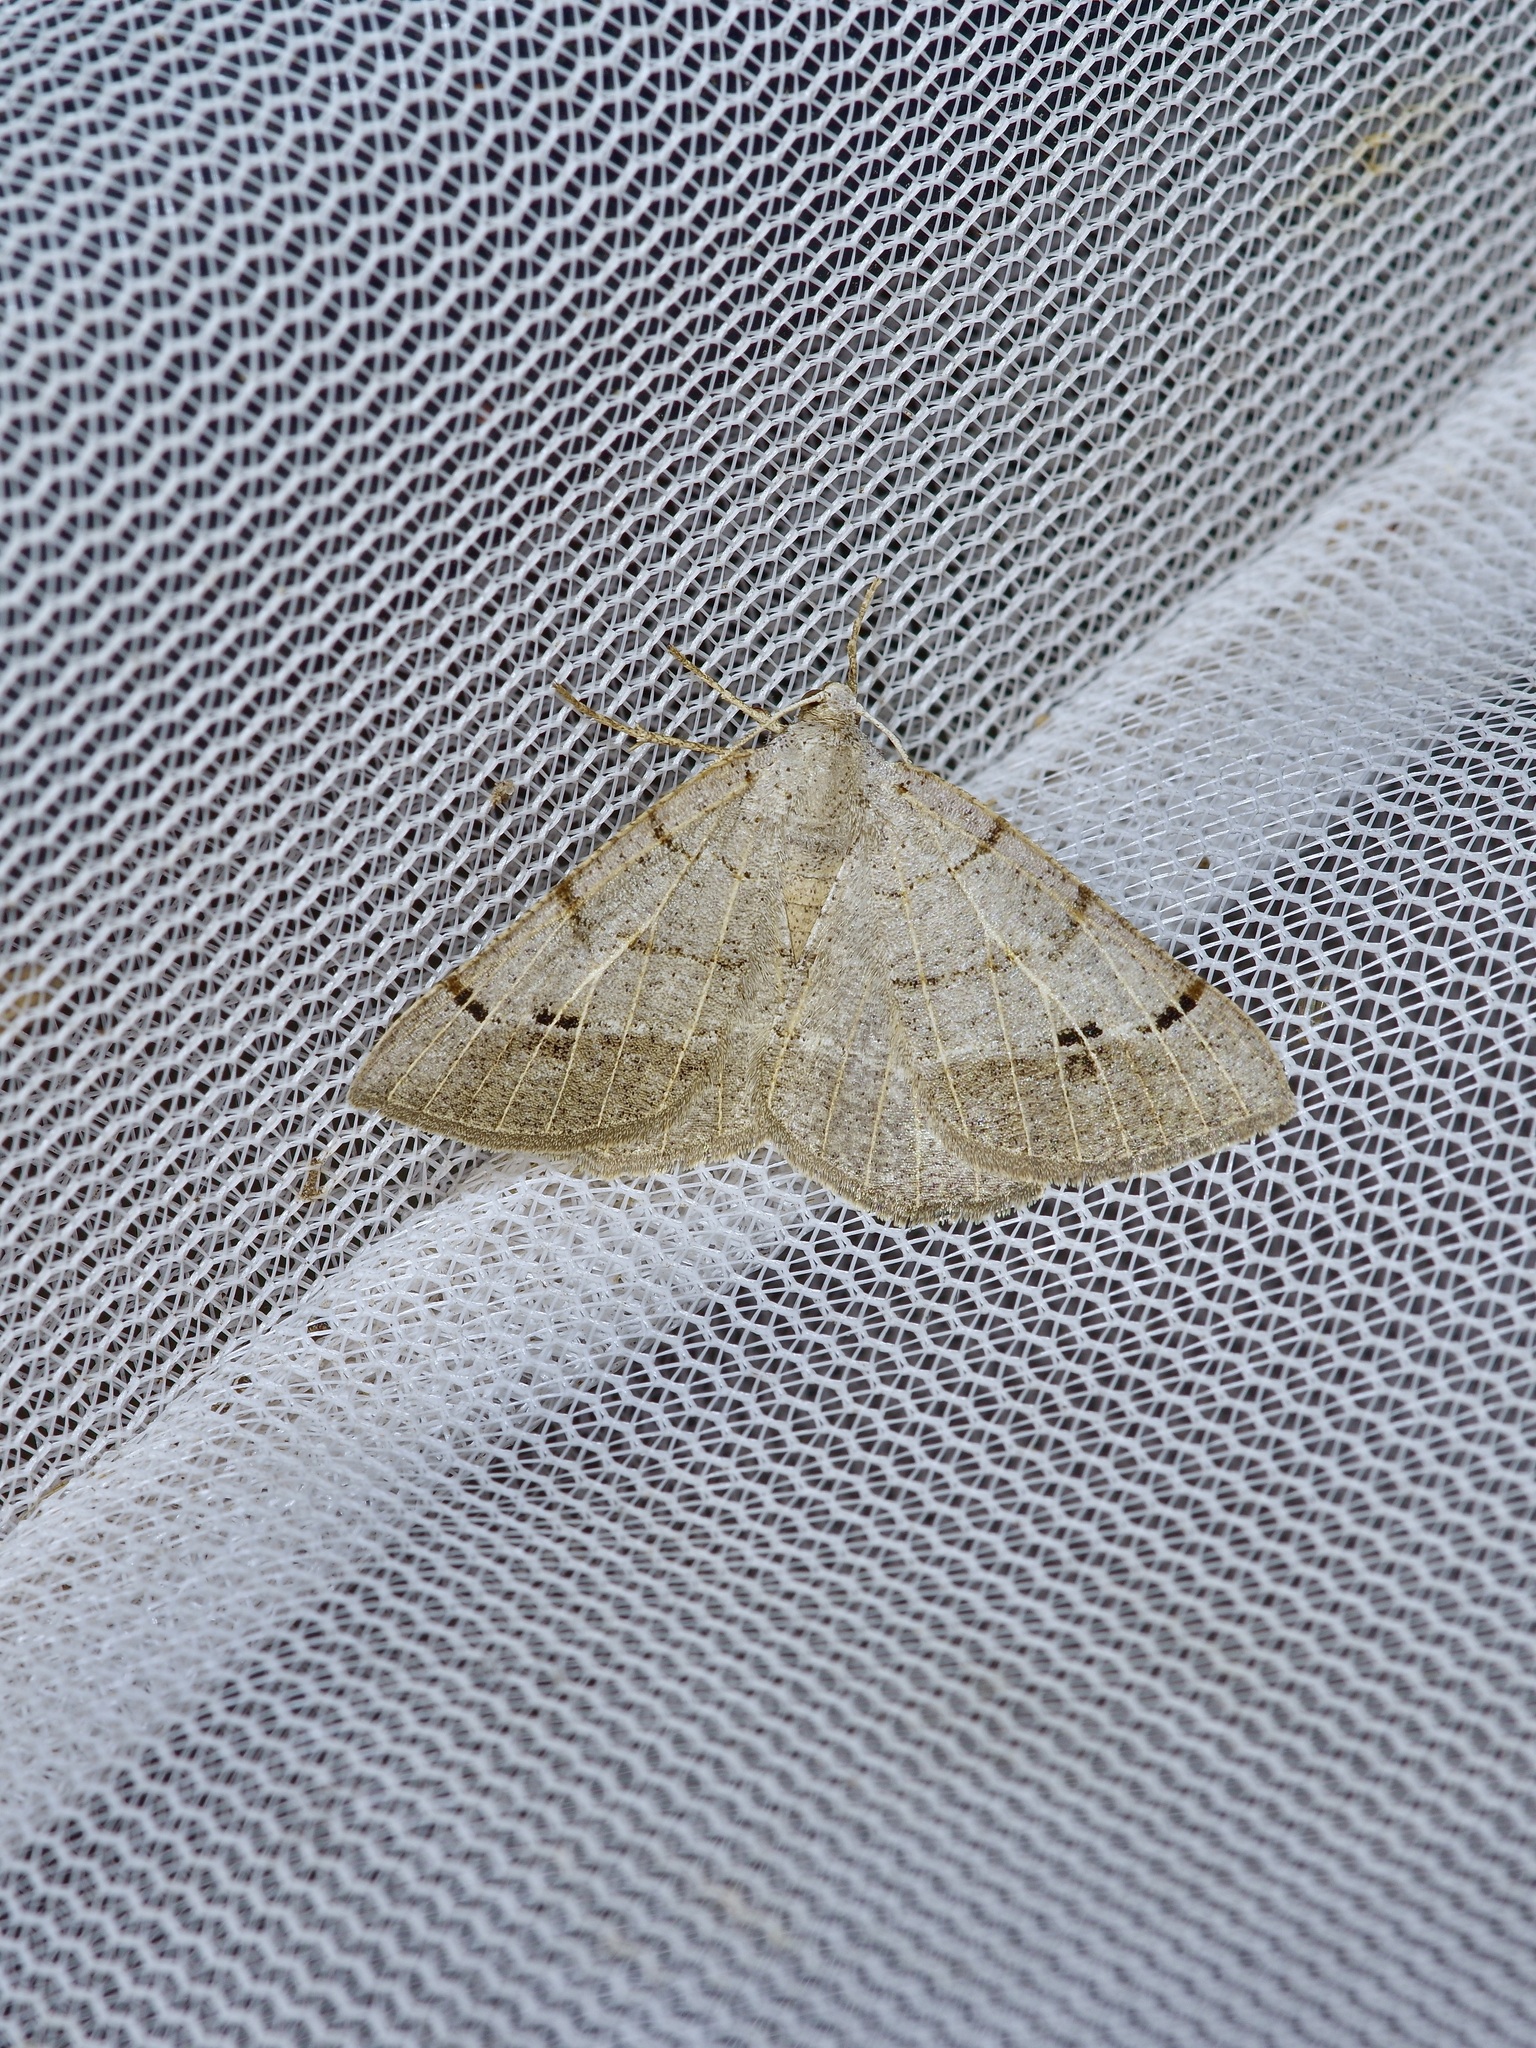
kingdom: Animalia
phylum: Arthropoda
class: Insecta
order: Lepidoptera
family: Geometridae
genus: Isturgia
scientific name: Isturgia dislocaria
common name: Pale-viened enconista
